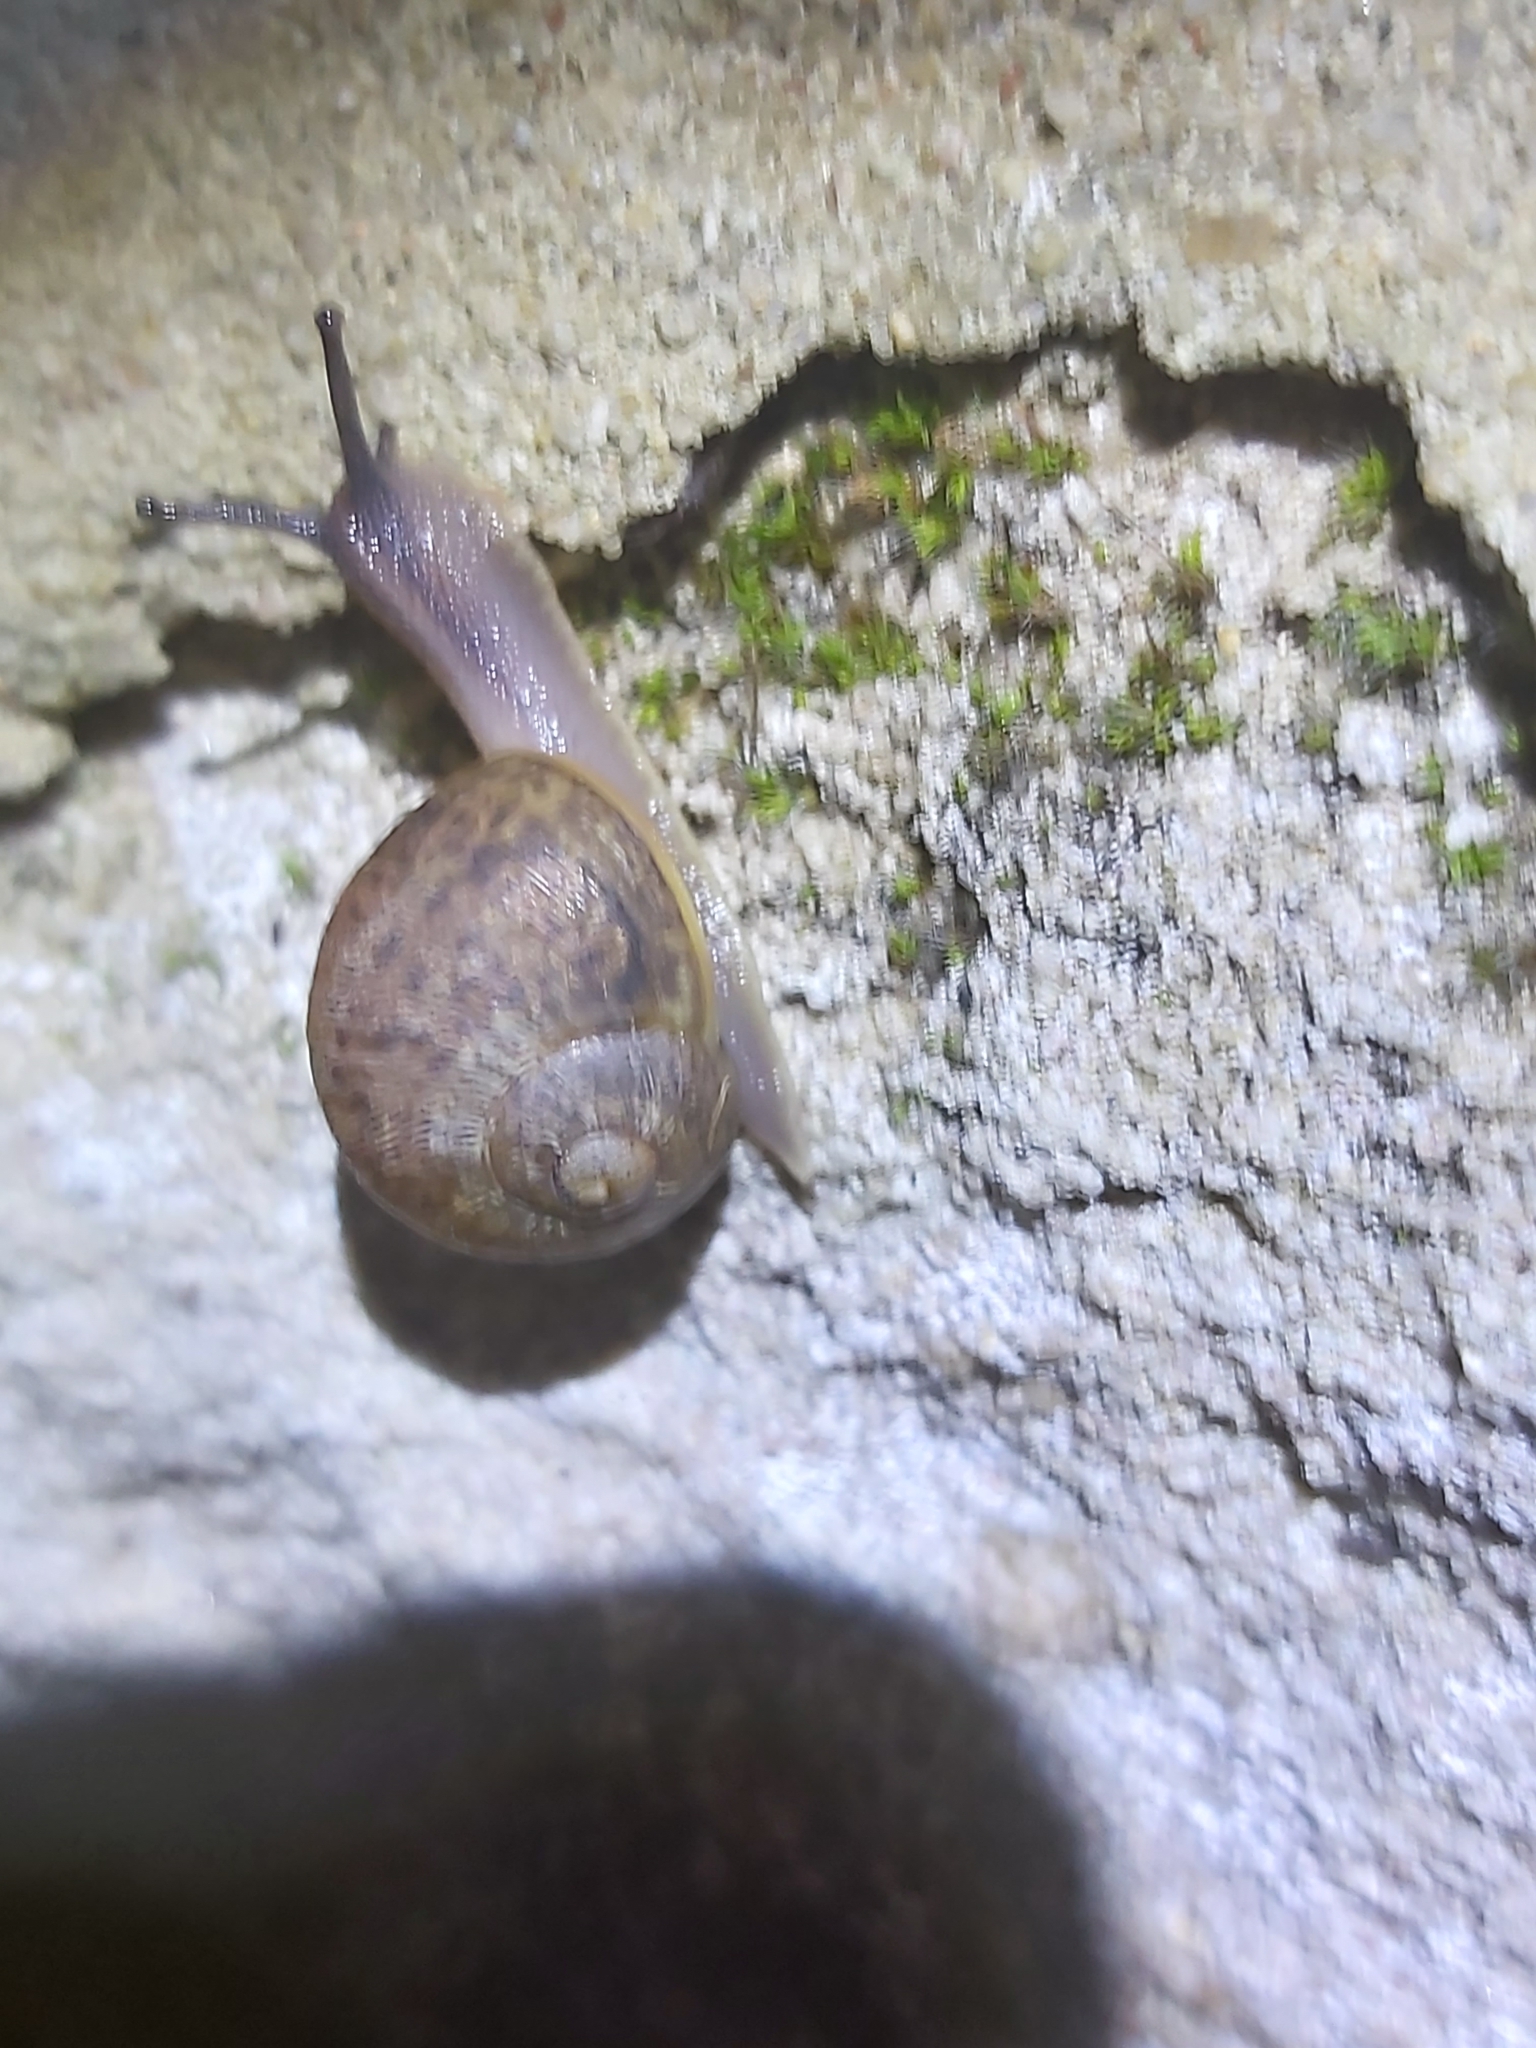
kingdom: Animalia
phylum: Mollusca
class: Gastropoda
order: Stylommatophora
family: Helicidae
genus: Cornu
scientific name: Cornu aspersum
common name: Brown garden snail
